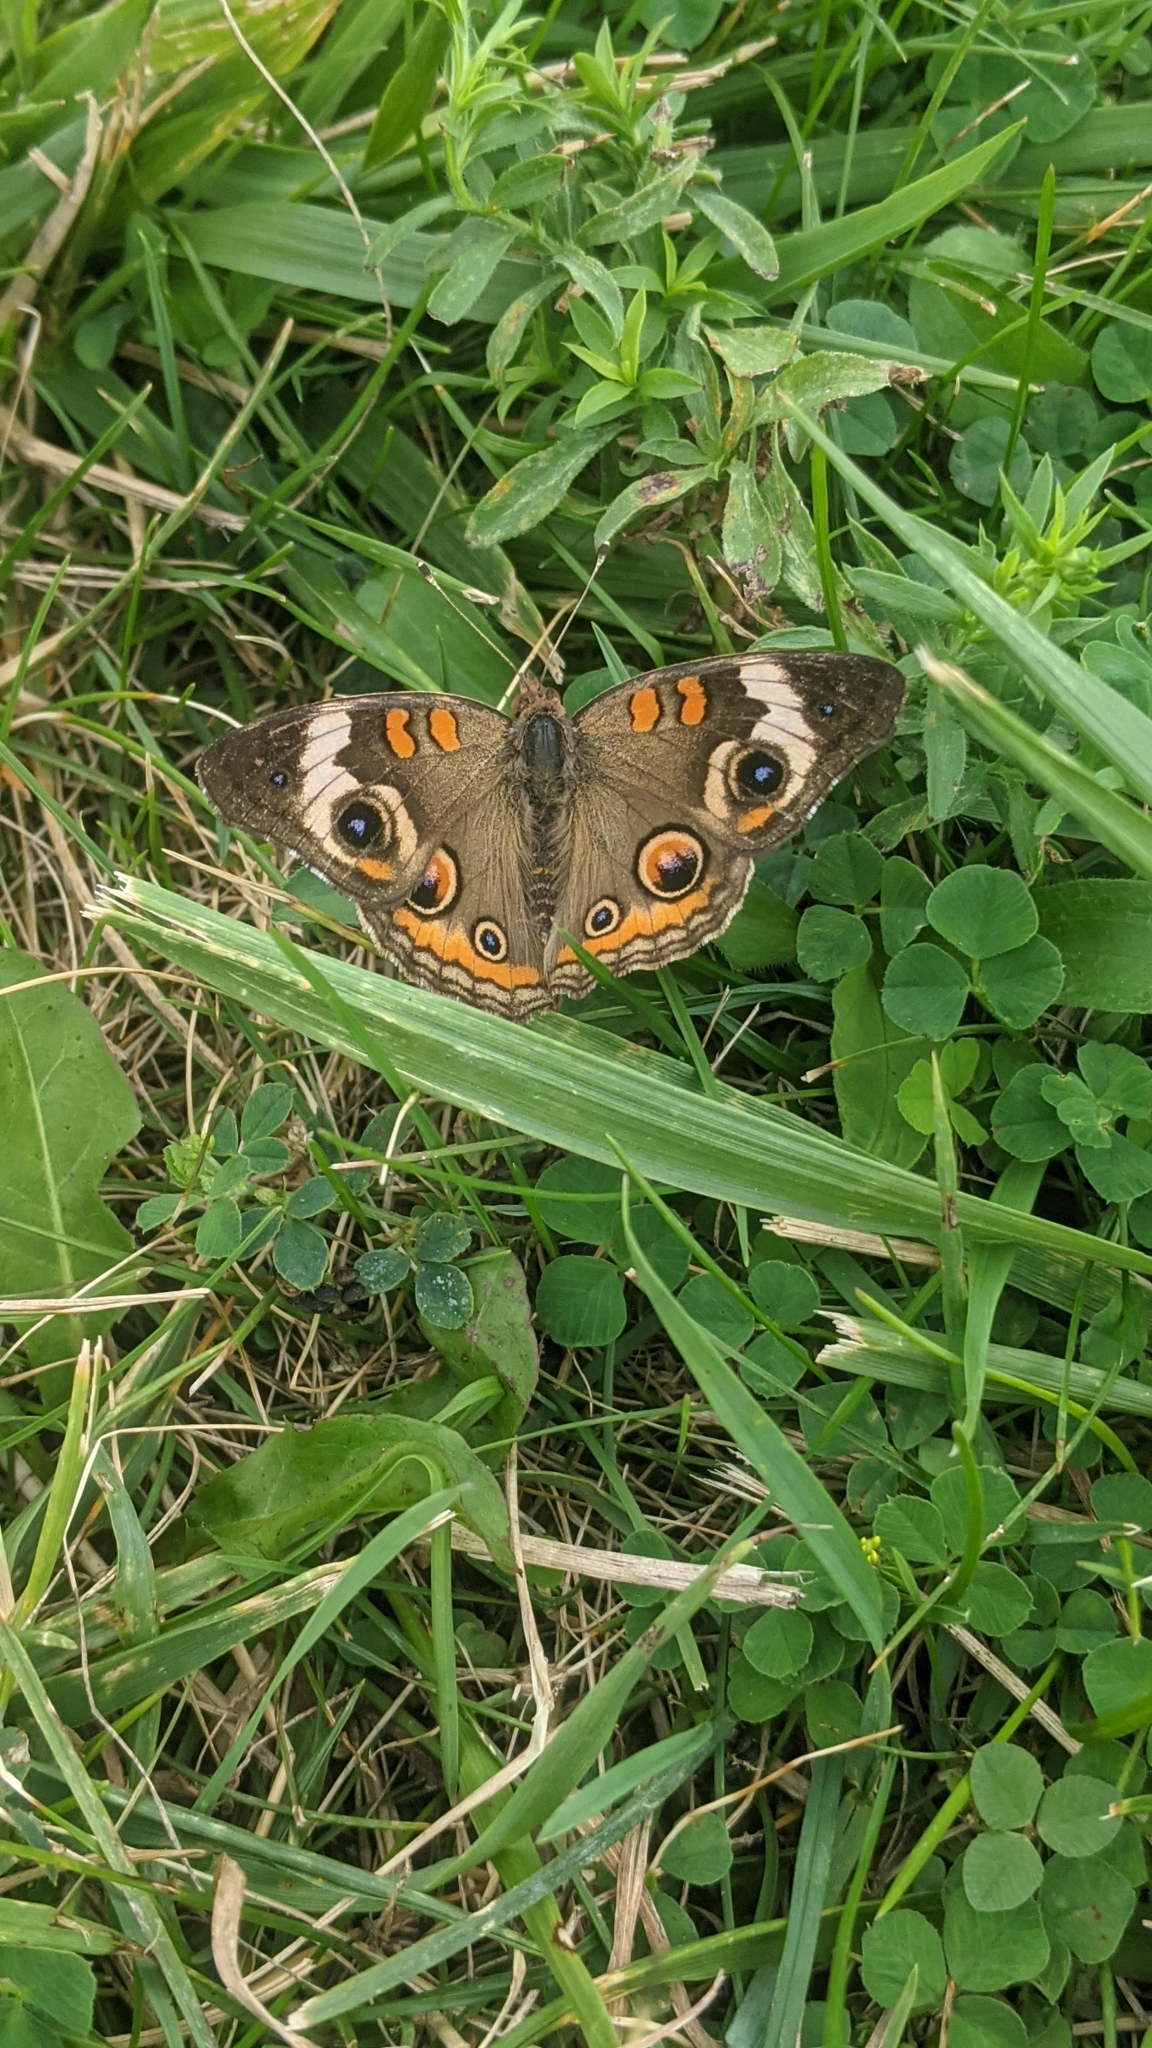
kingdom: Animalia
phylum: Arthropoda
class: Insecta
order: Lepidoptera
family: Nymphalidae
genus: Junonia
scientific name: Junonia coenia
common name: Common buckeye
